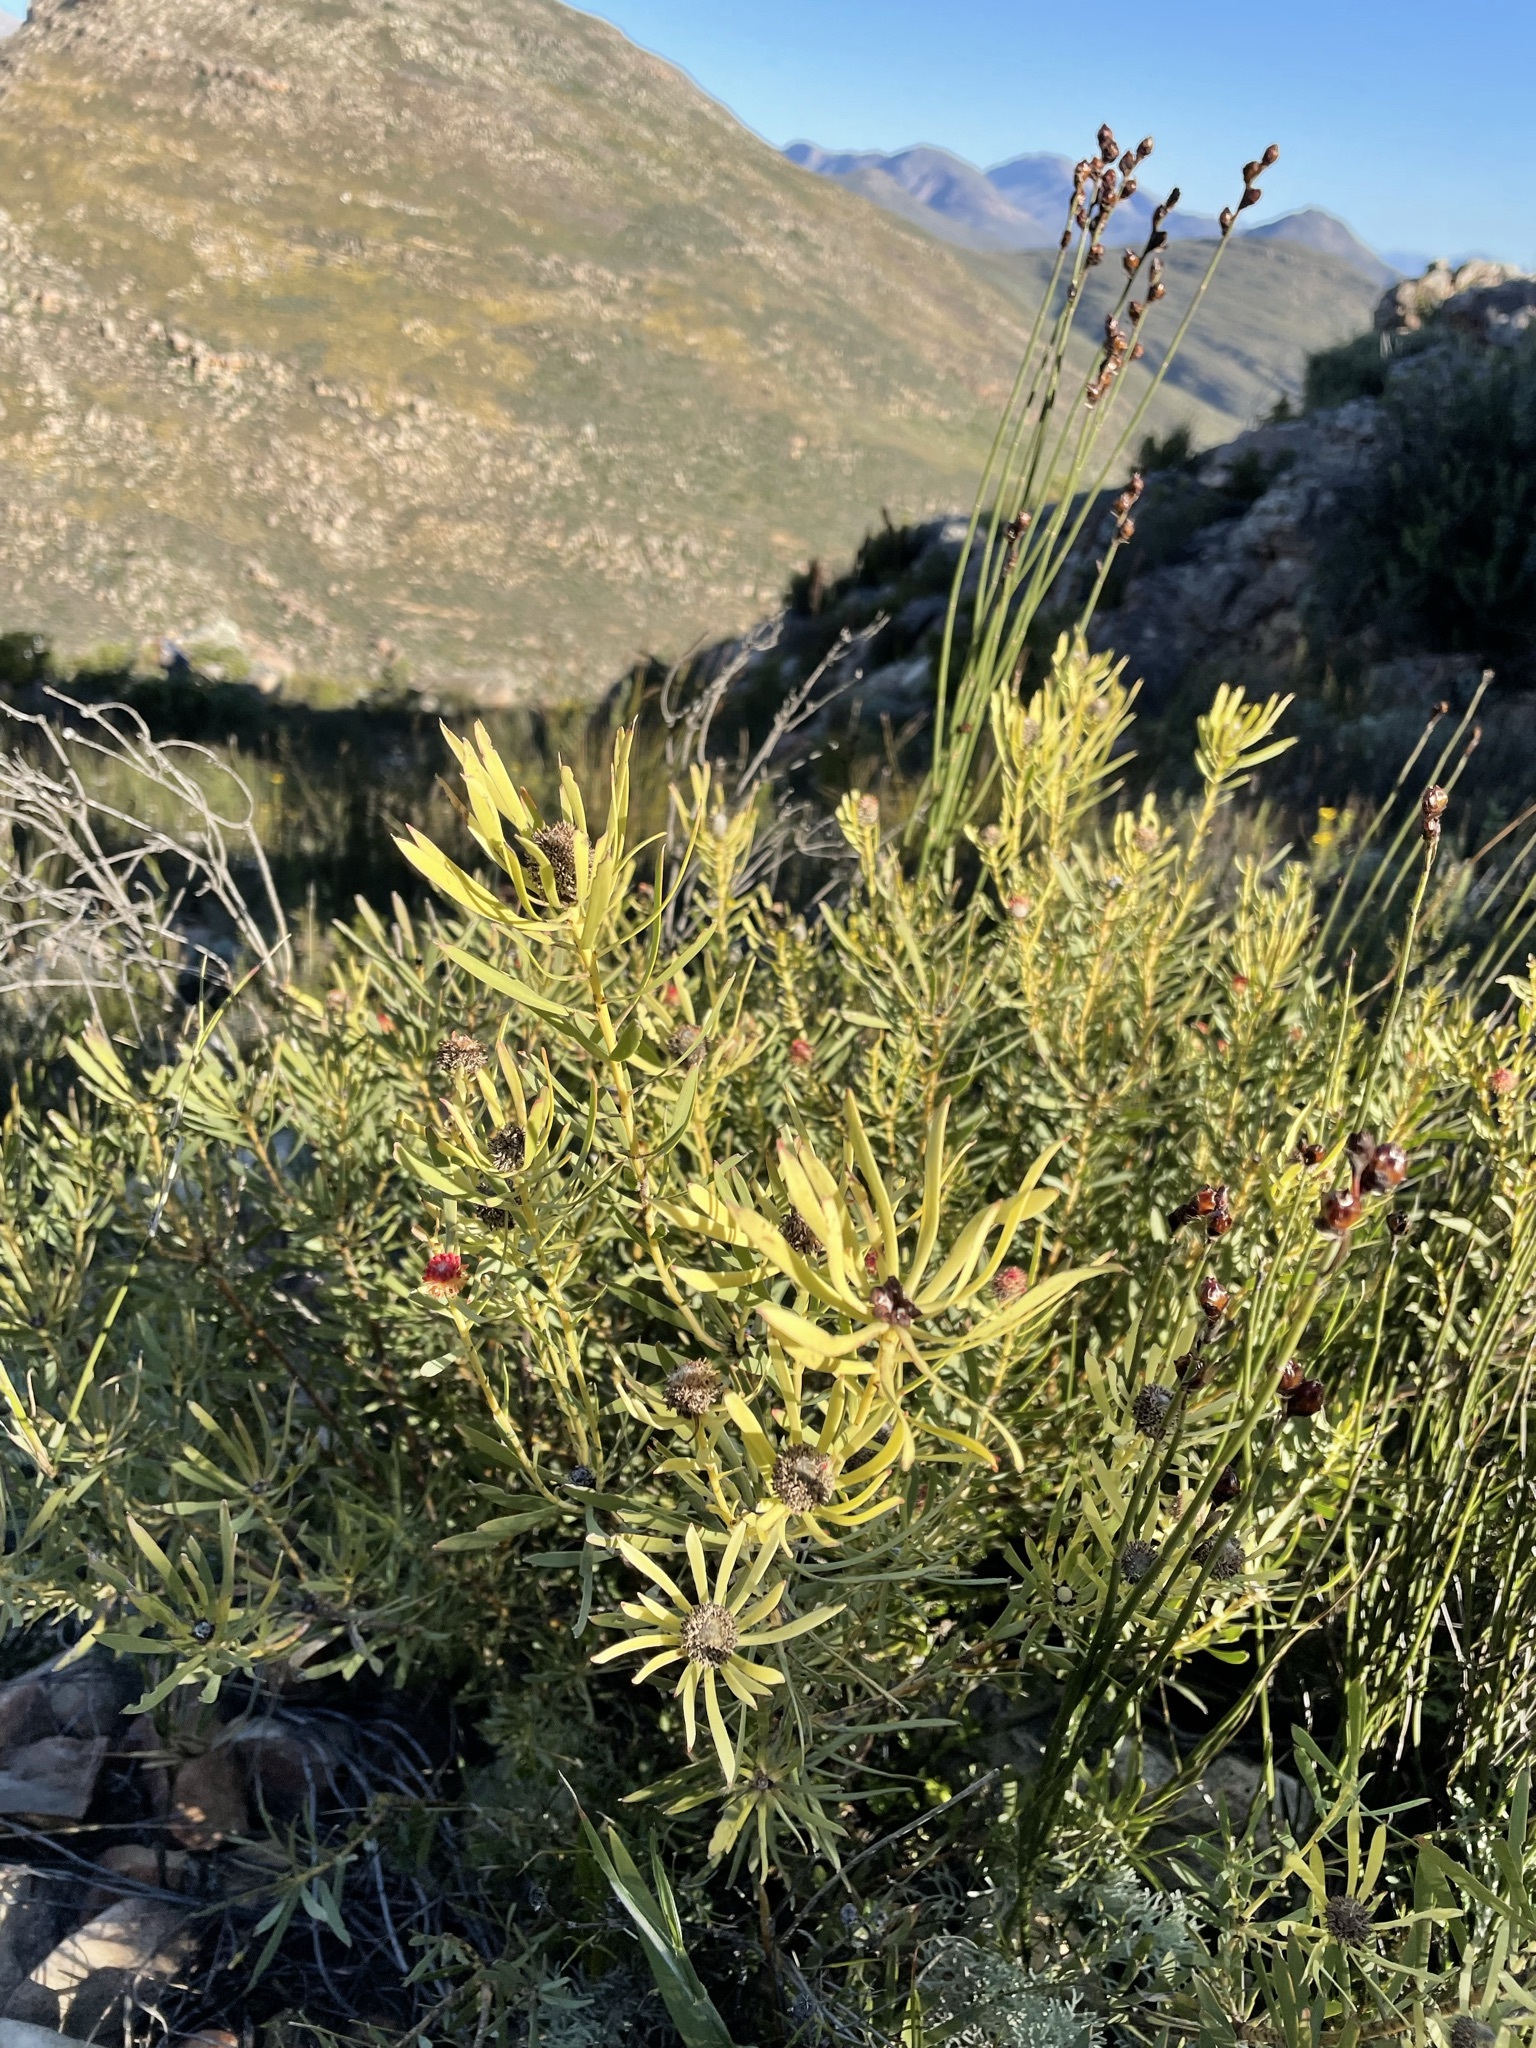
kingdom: Plantae
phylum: Tracheophyta
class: Magnoliopsida
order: Proteales
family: Proteaceae
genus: Leucadendron
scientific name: Leucadendron salignum
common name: Common sunshine conebush
